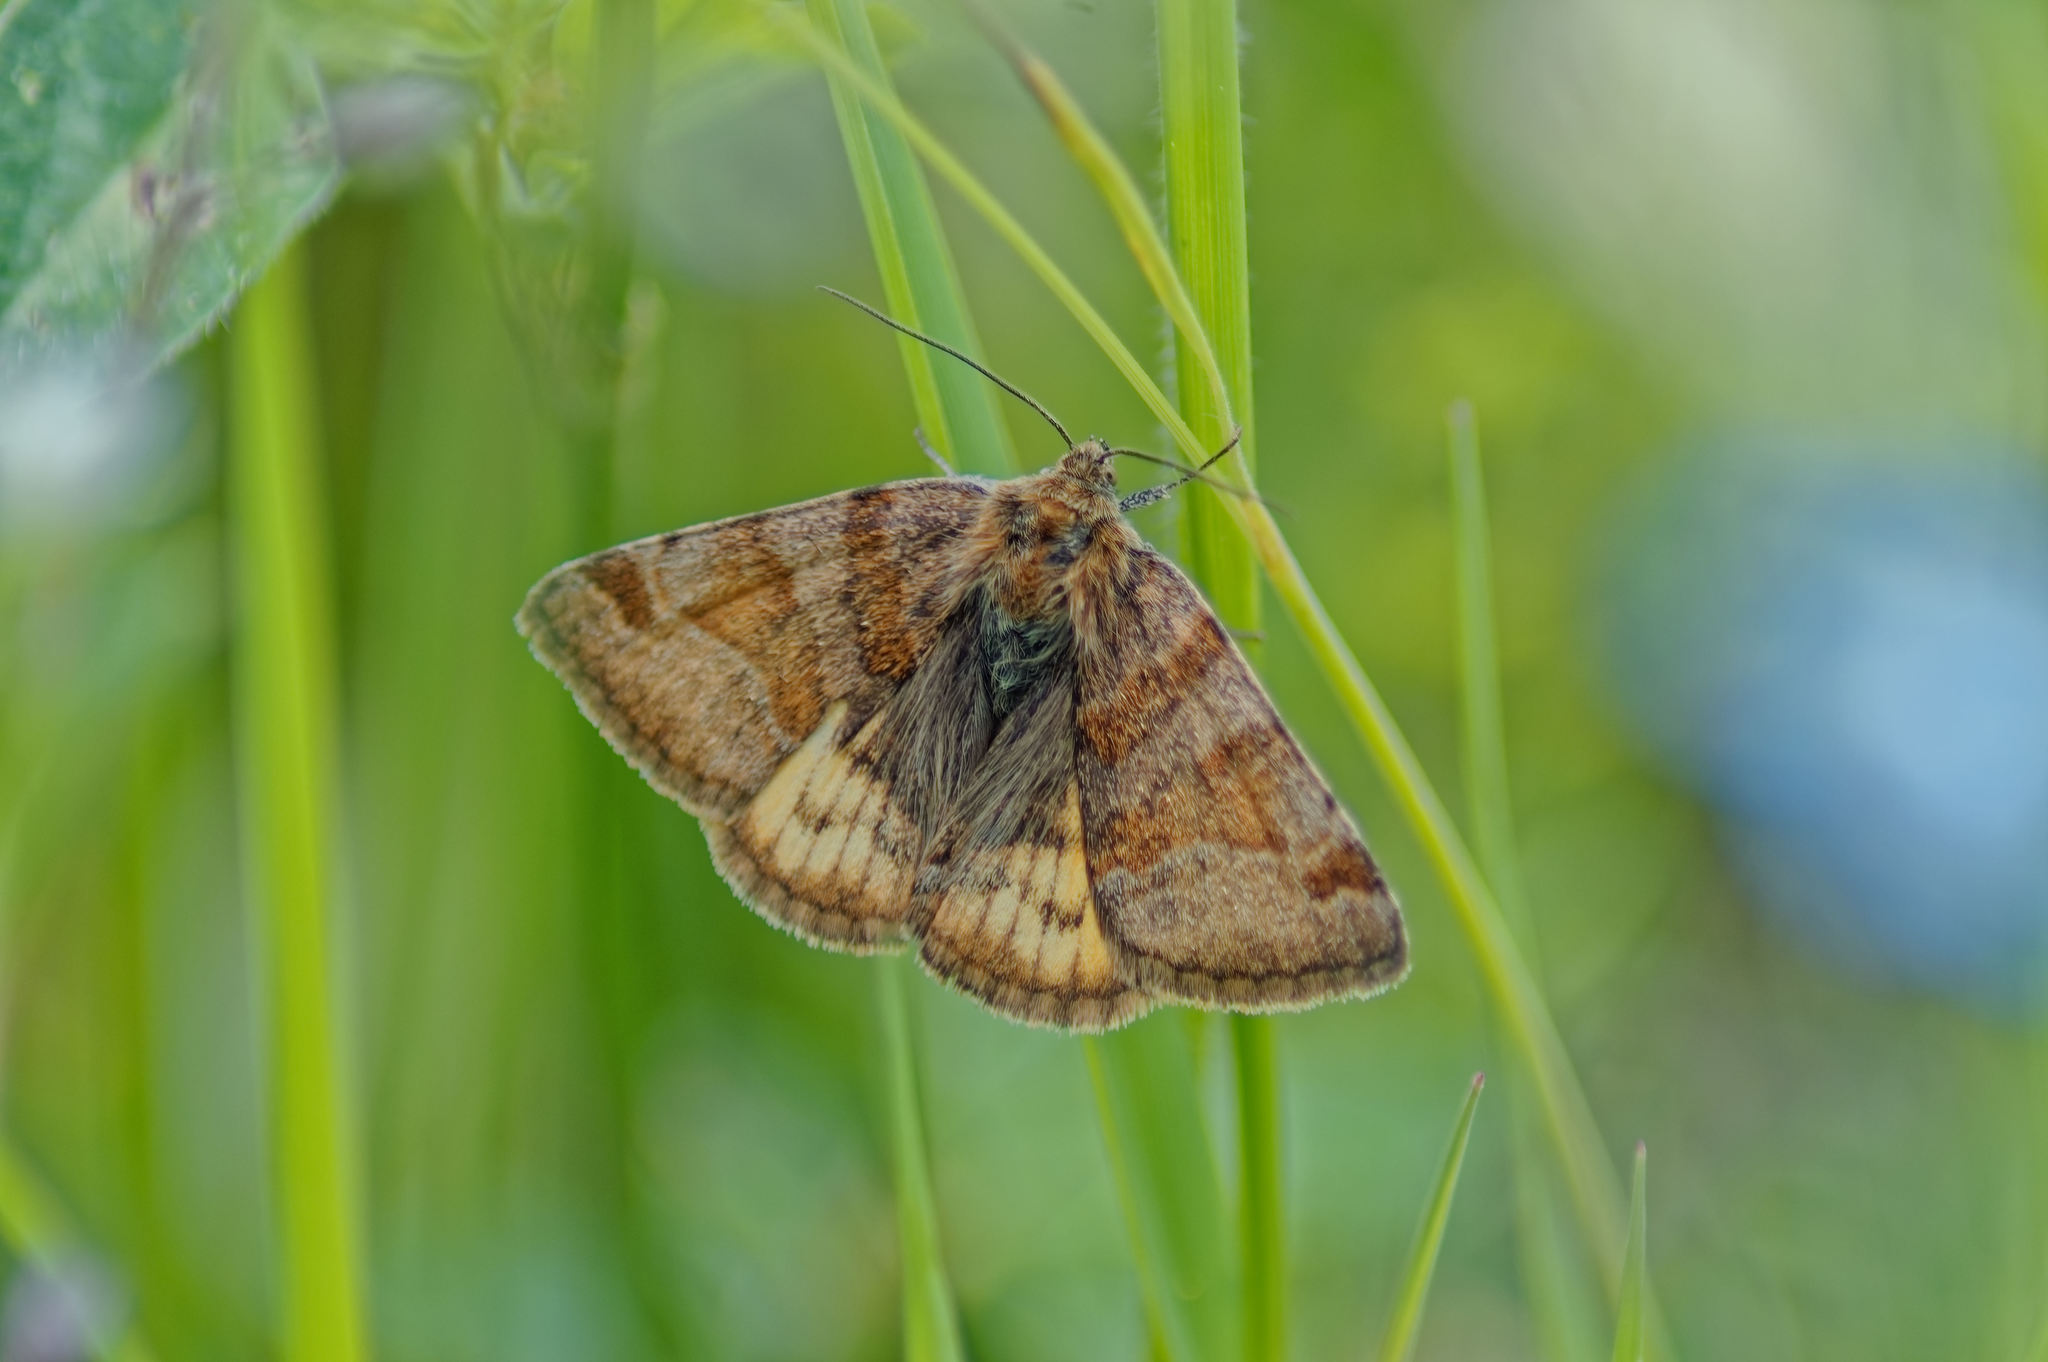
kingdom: Animalia
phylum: Arthropoda
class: Insecta
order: Lepidoptera
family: Erebidae
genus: Euclidia
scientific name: Euclidia glyphica
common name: Burnet companion
